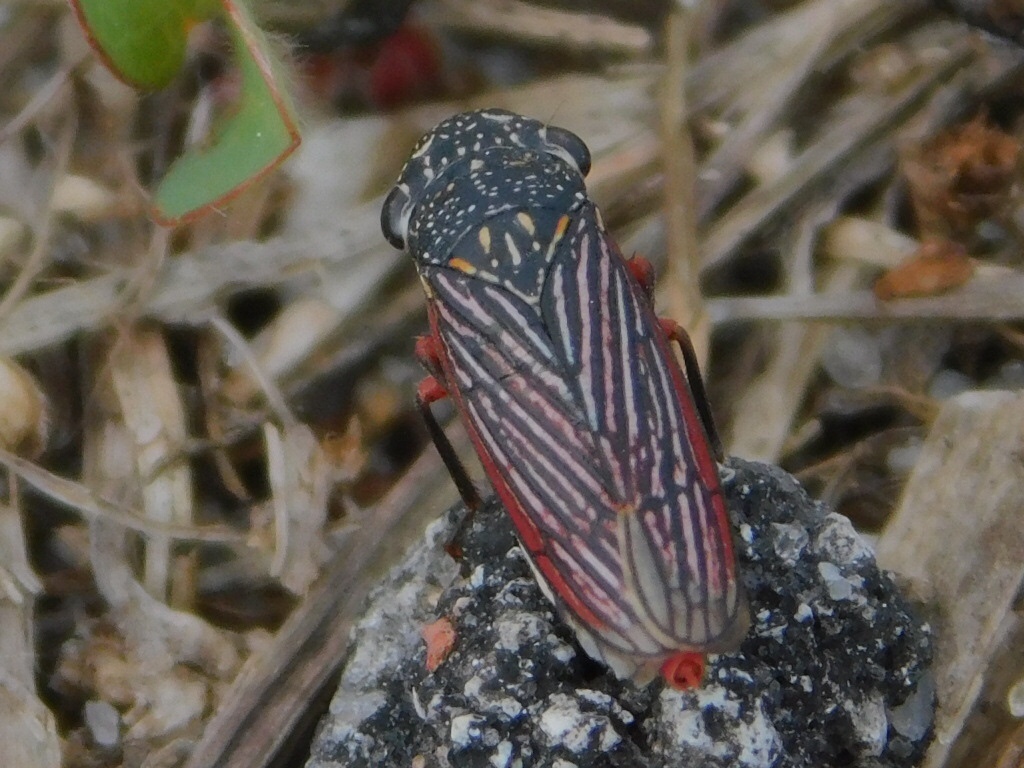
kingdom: Animalia
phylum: Arthropoda
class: Insecta
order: Hemiptera
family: Cicadellidae
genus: Cuerna
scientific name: Cuerna costalis
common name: Lateral-lined sharpshooter
